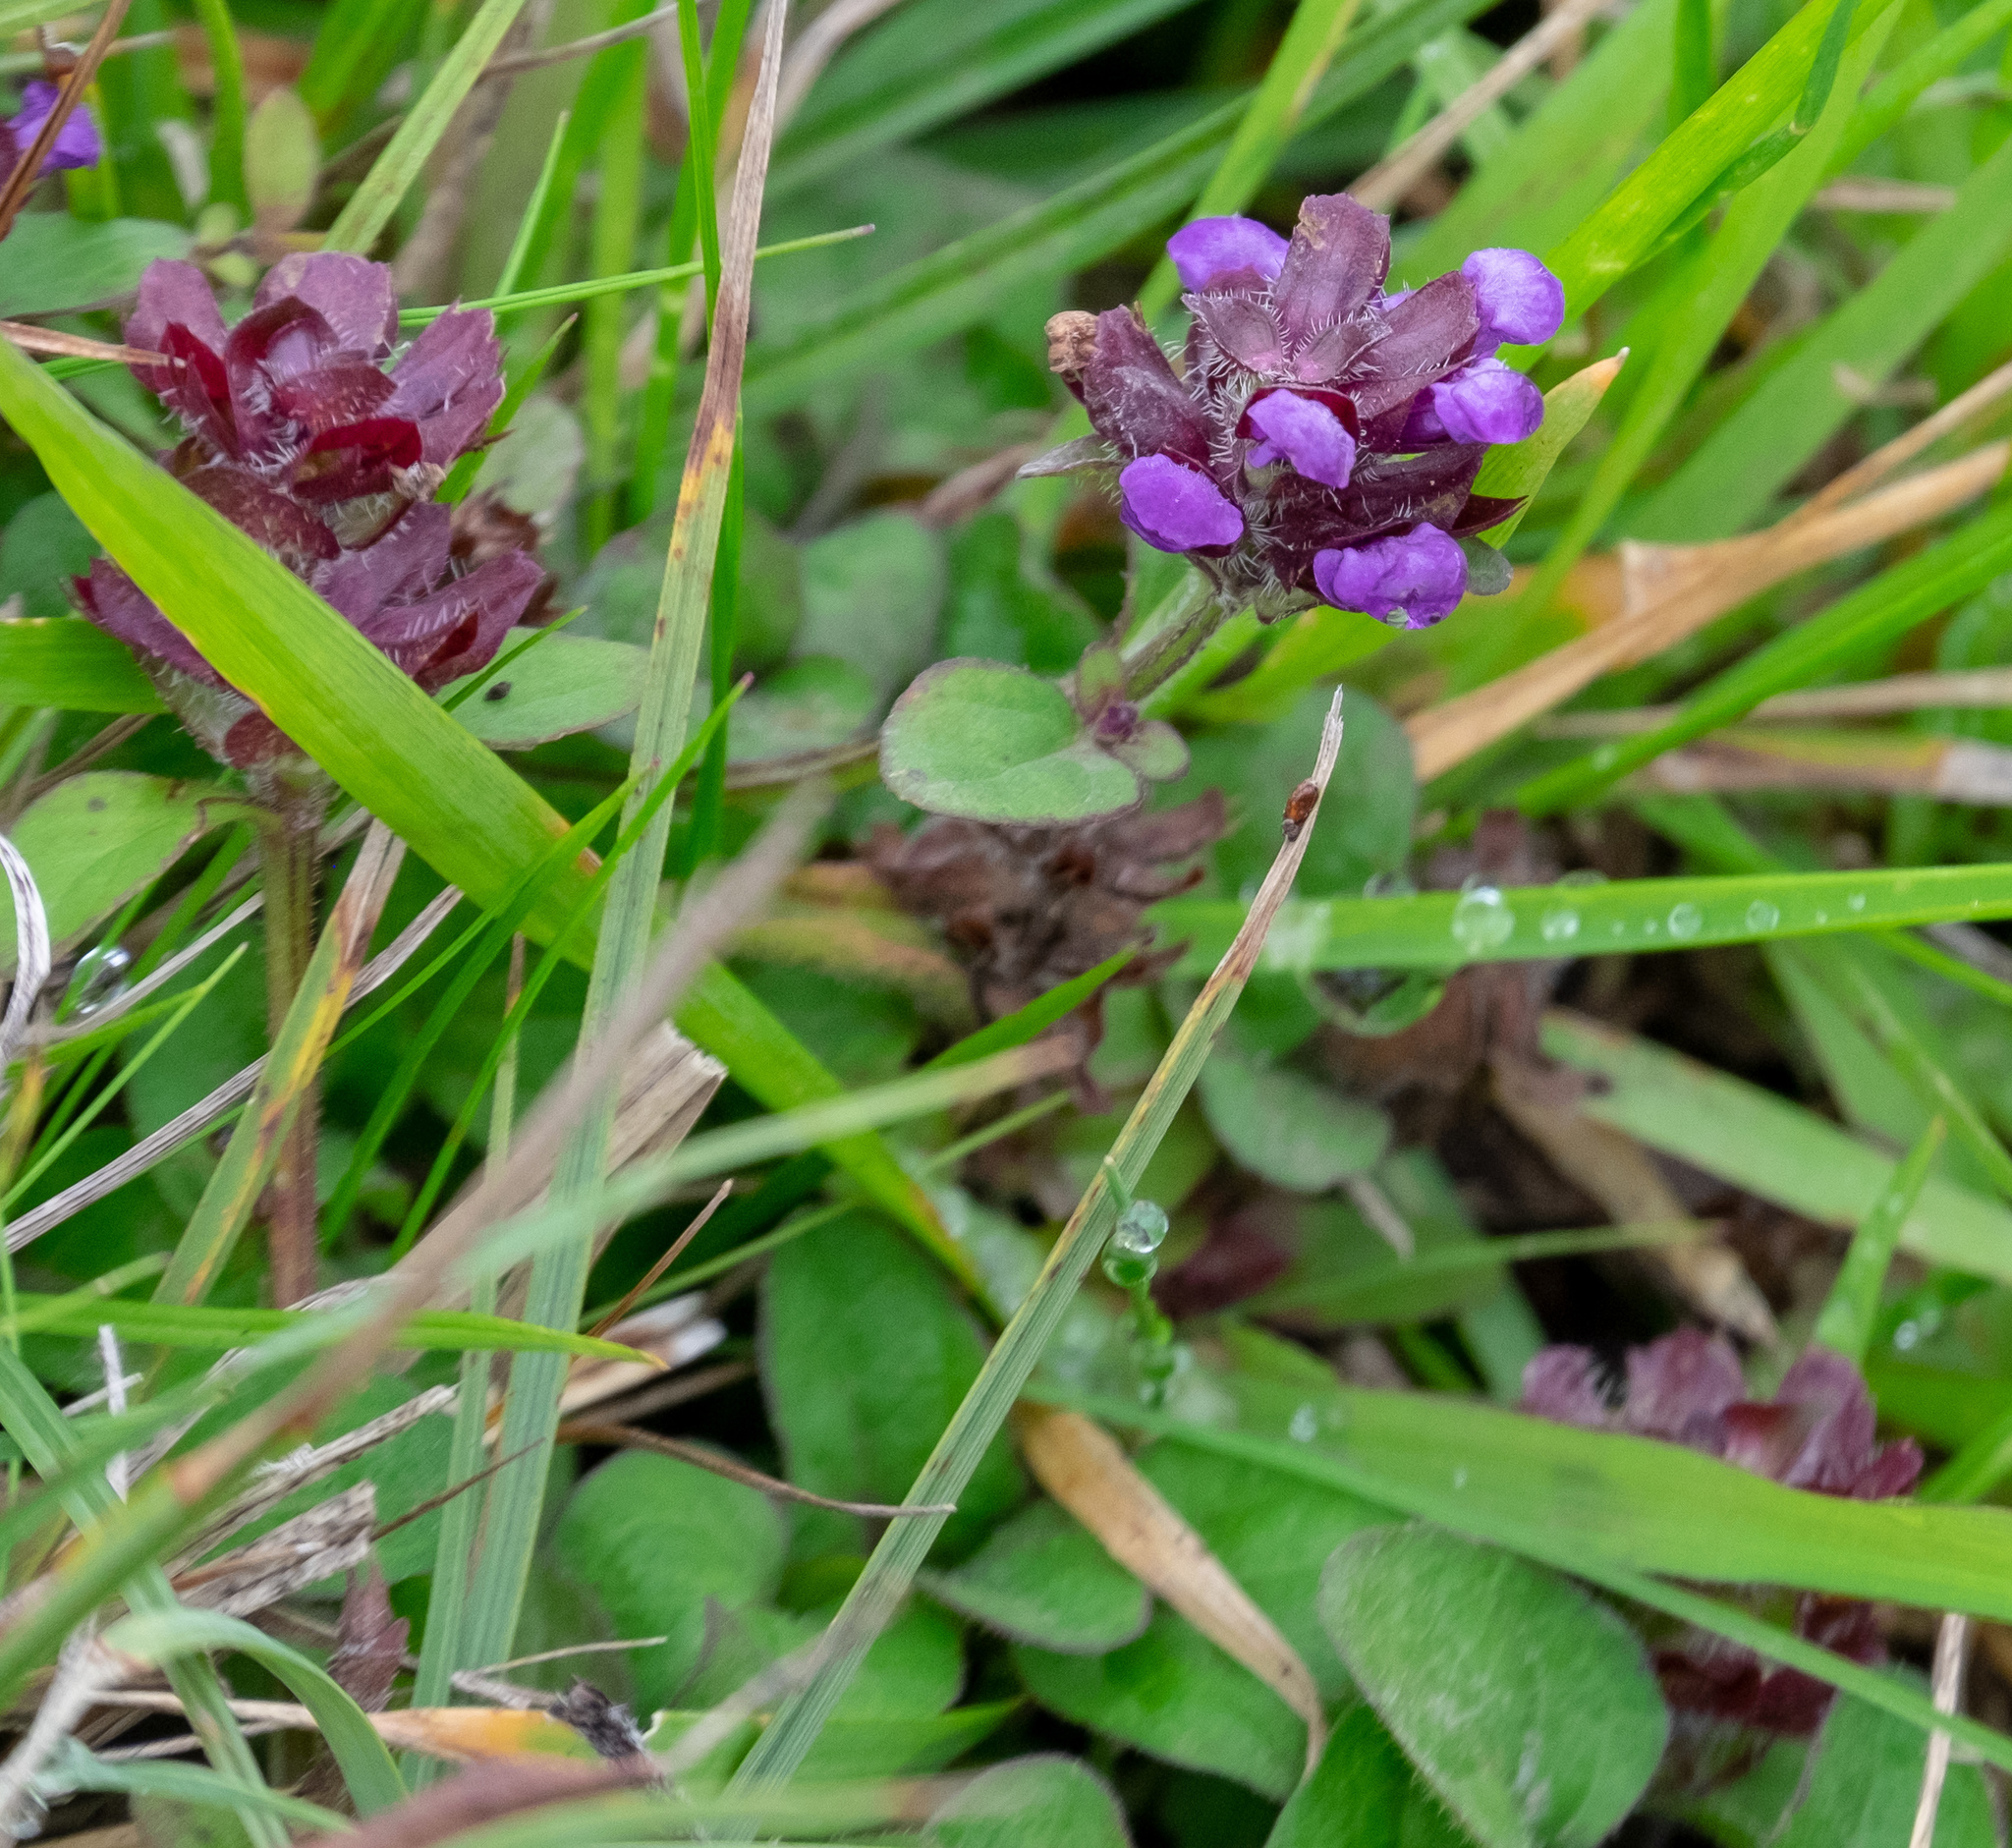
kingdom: Plantae
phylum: Tracheophyta
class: Magnoliopsida
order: Lamiales
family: Lamiaceae
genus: Prunella
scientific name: Prunella vulgaris
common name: Heal-all
